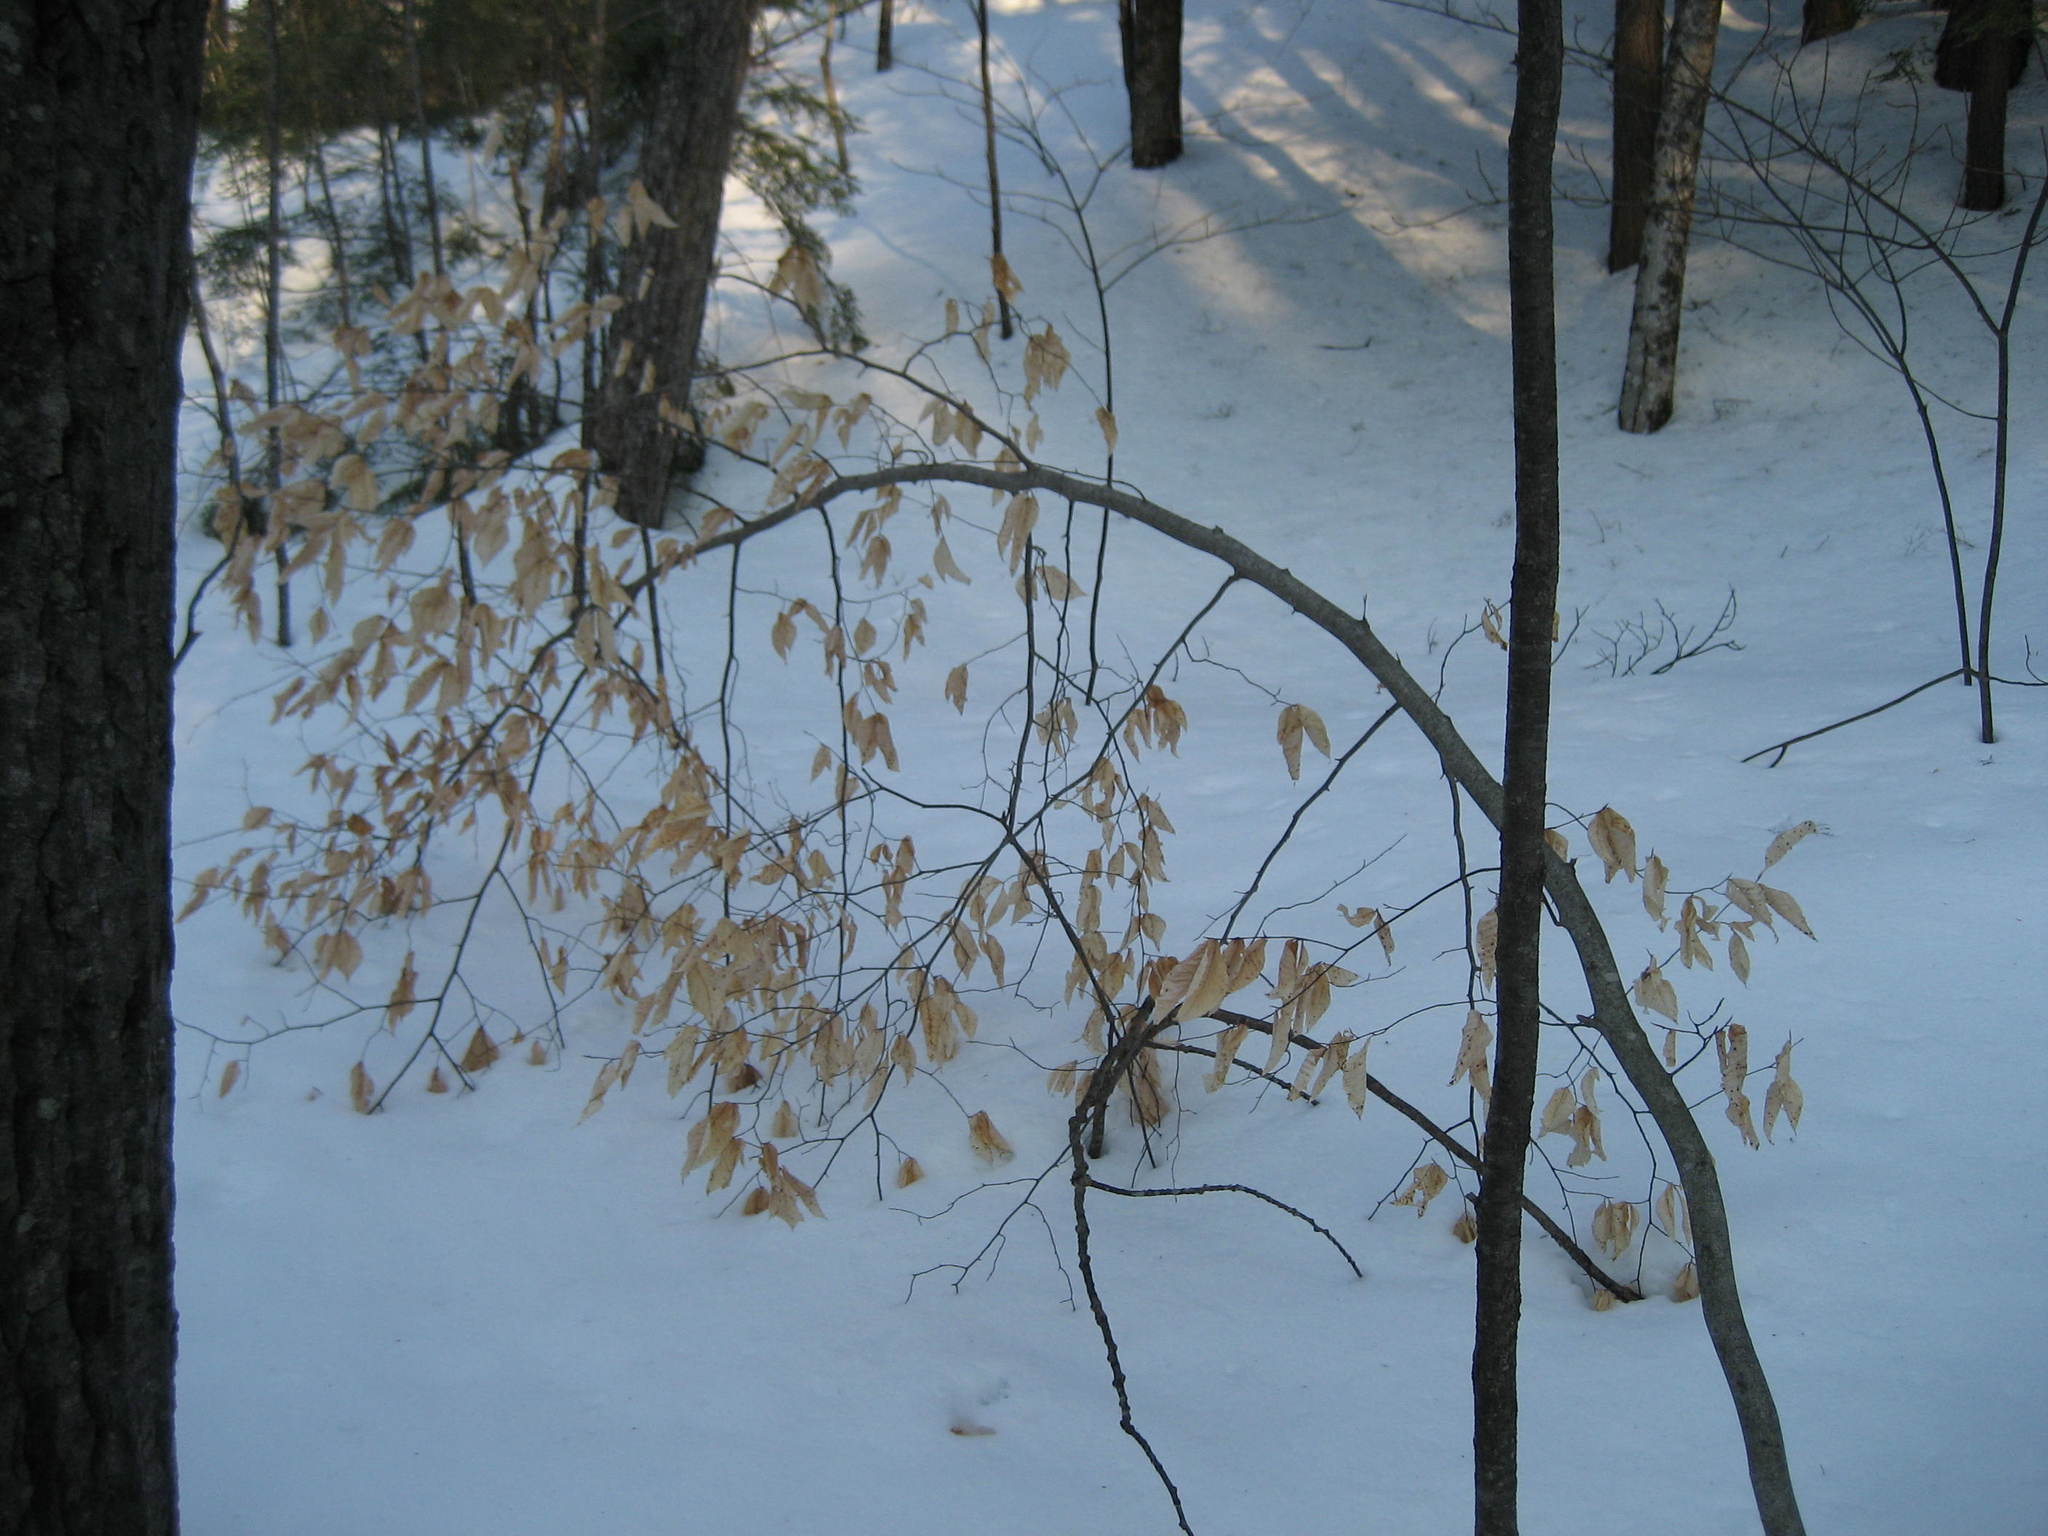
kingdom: Plantae
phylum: Tracheophyta
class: Magnoliopsida
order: Fagales
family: Fagaceae
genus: Fagus
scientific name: Fagus grandifolia
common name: American beech
